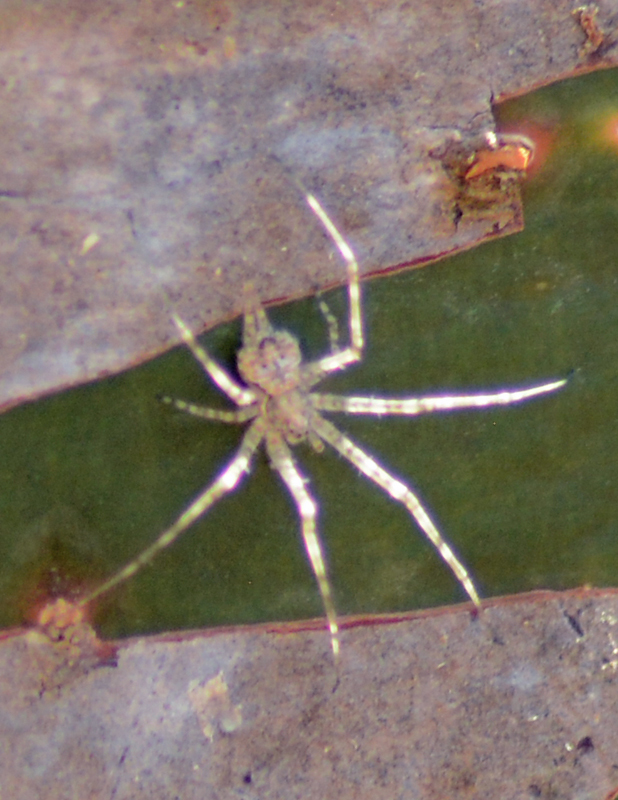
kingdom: Animalia
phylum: Arthropoda
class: Arachnida
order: Araneae
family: Hersiliidae
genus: Neotama
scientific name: Neotama mexicana
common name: Tree trunk spiders
